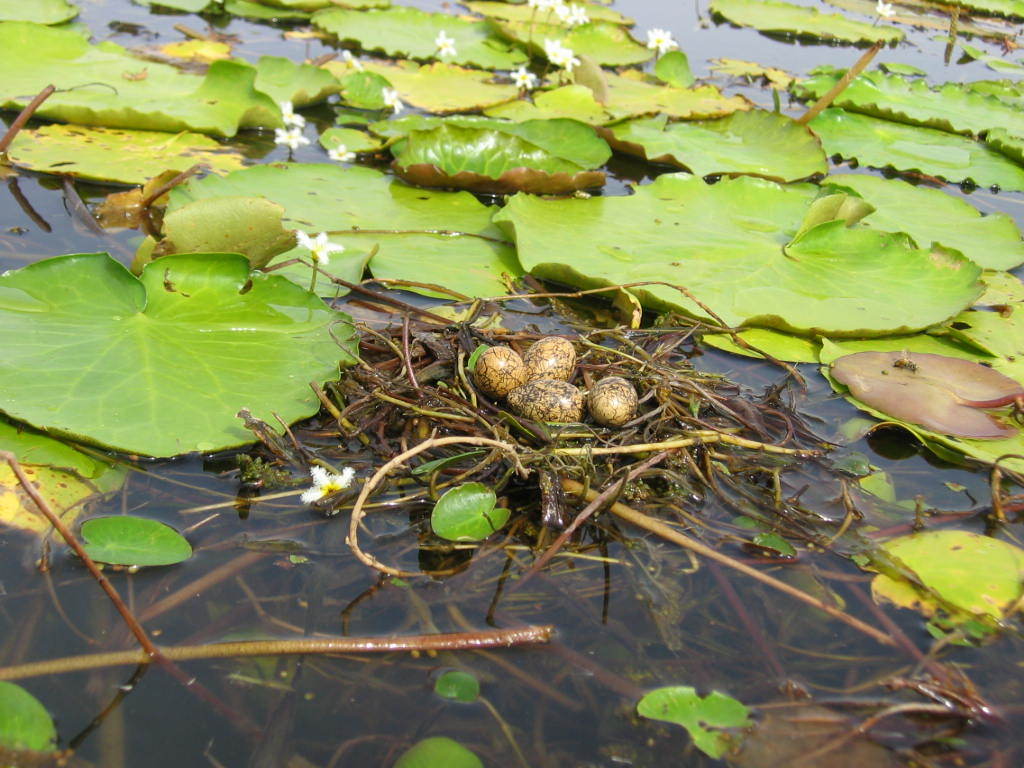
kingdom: Animalia
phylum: Chordata
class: Aves
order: Charadriiformes
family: Jacanidae
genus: Actophilornis
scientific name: Actophilornis africanus
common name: African jacana
